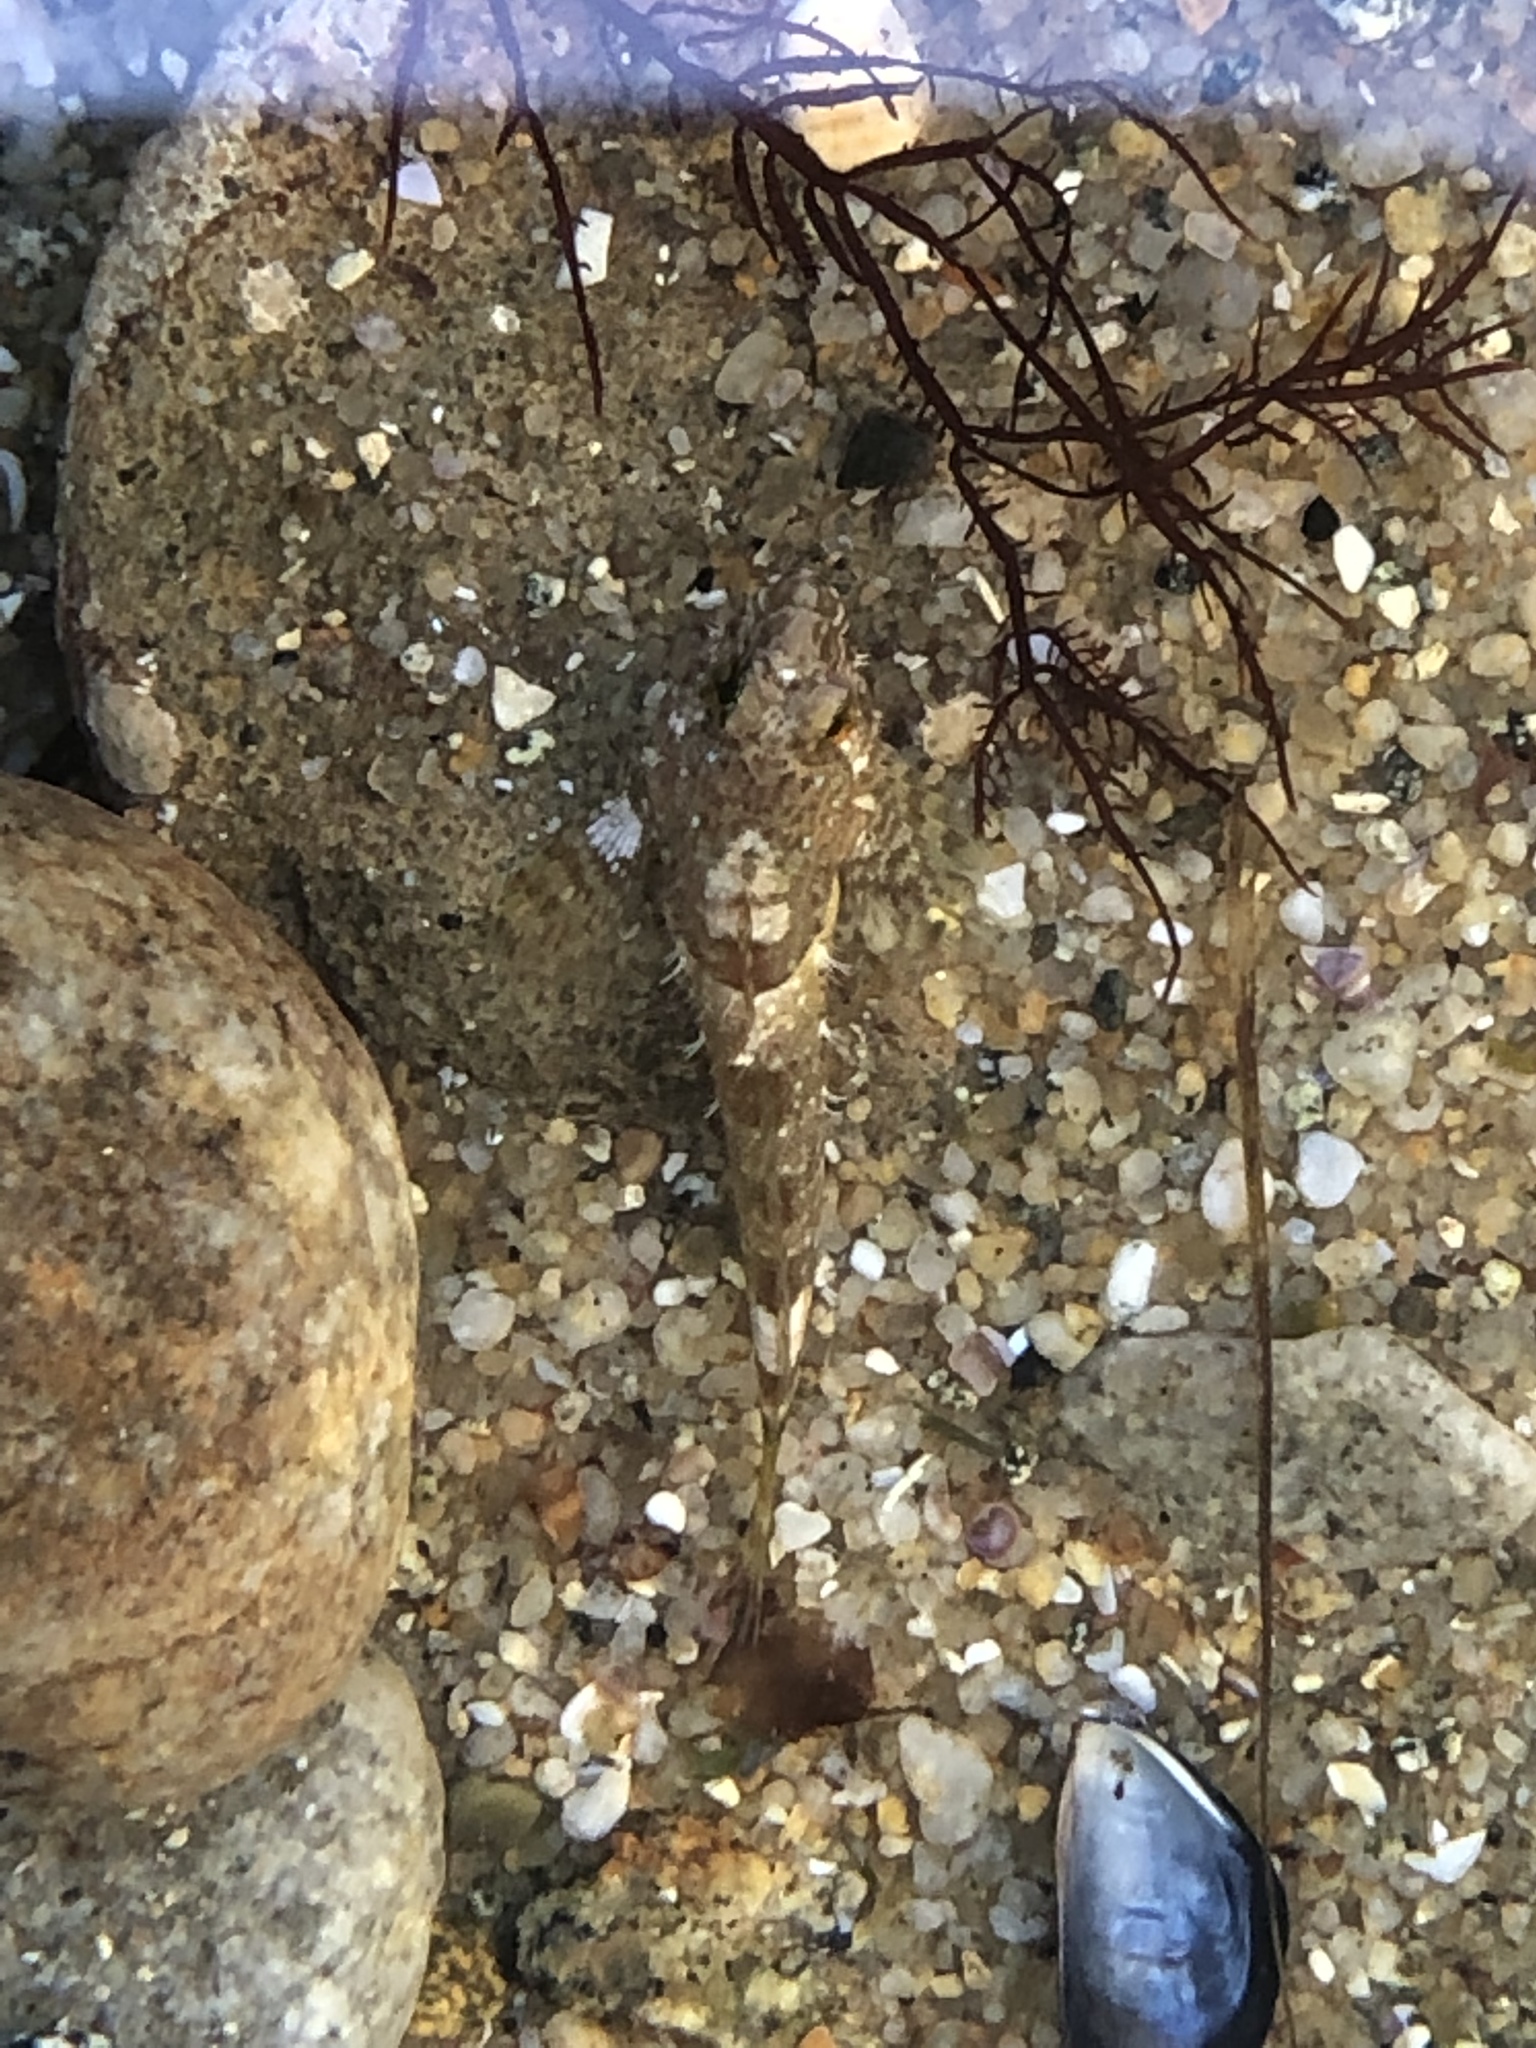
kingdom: Animalia
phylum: Chordata
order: Scorpaeniformes
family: Cottidae
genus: Clinocottus
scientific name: Clinocottus analis
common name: Woolly sculpin
